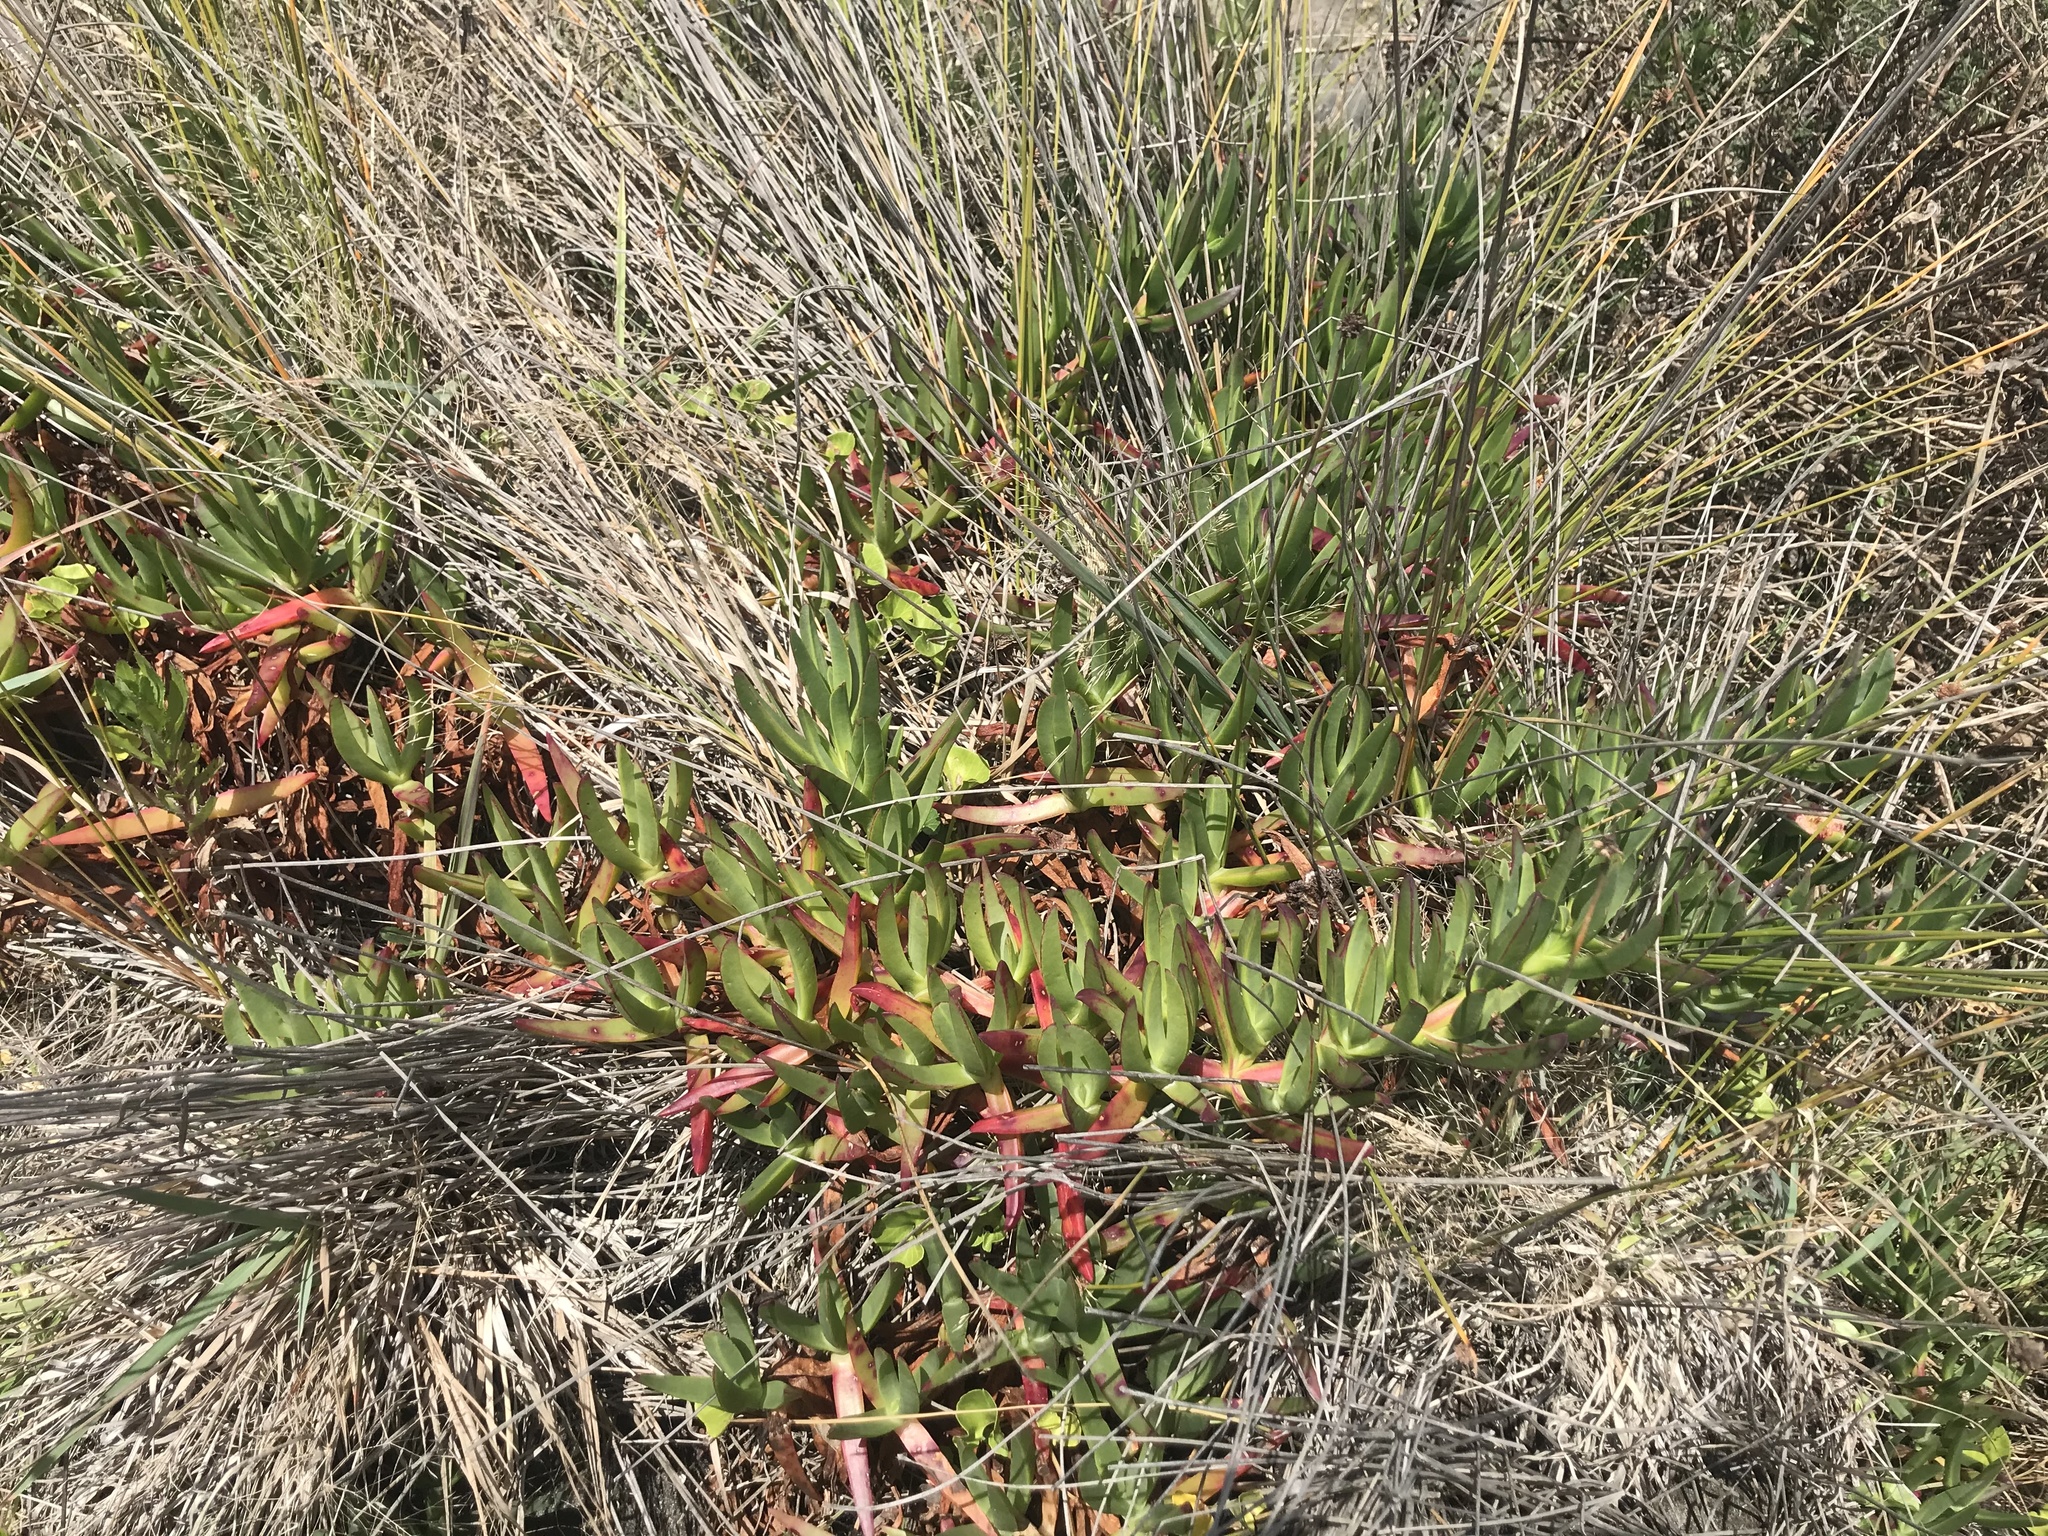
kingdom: Plantae
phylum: Tracheophyta
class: Magnoliopsida
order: Caryophyllales
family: Aizoaceae
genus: Carpobrotus
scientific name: Carpobrotus edulis
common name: Hottentot-fig
